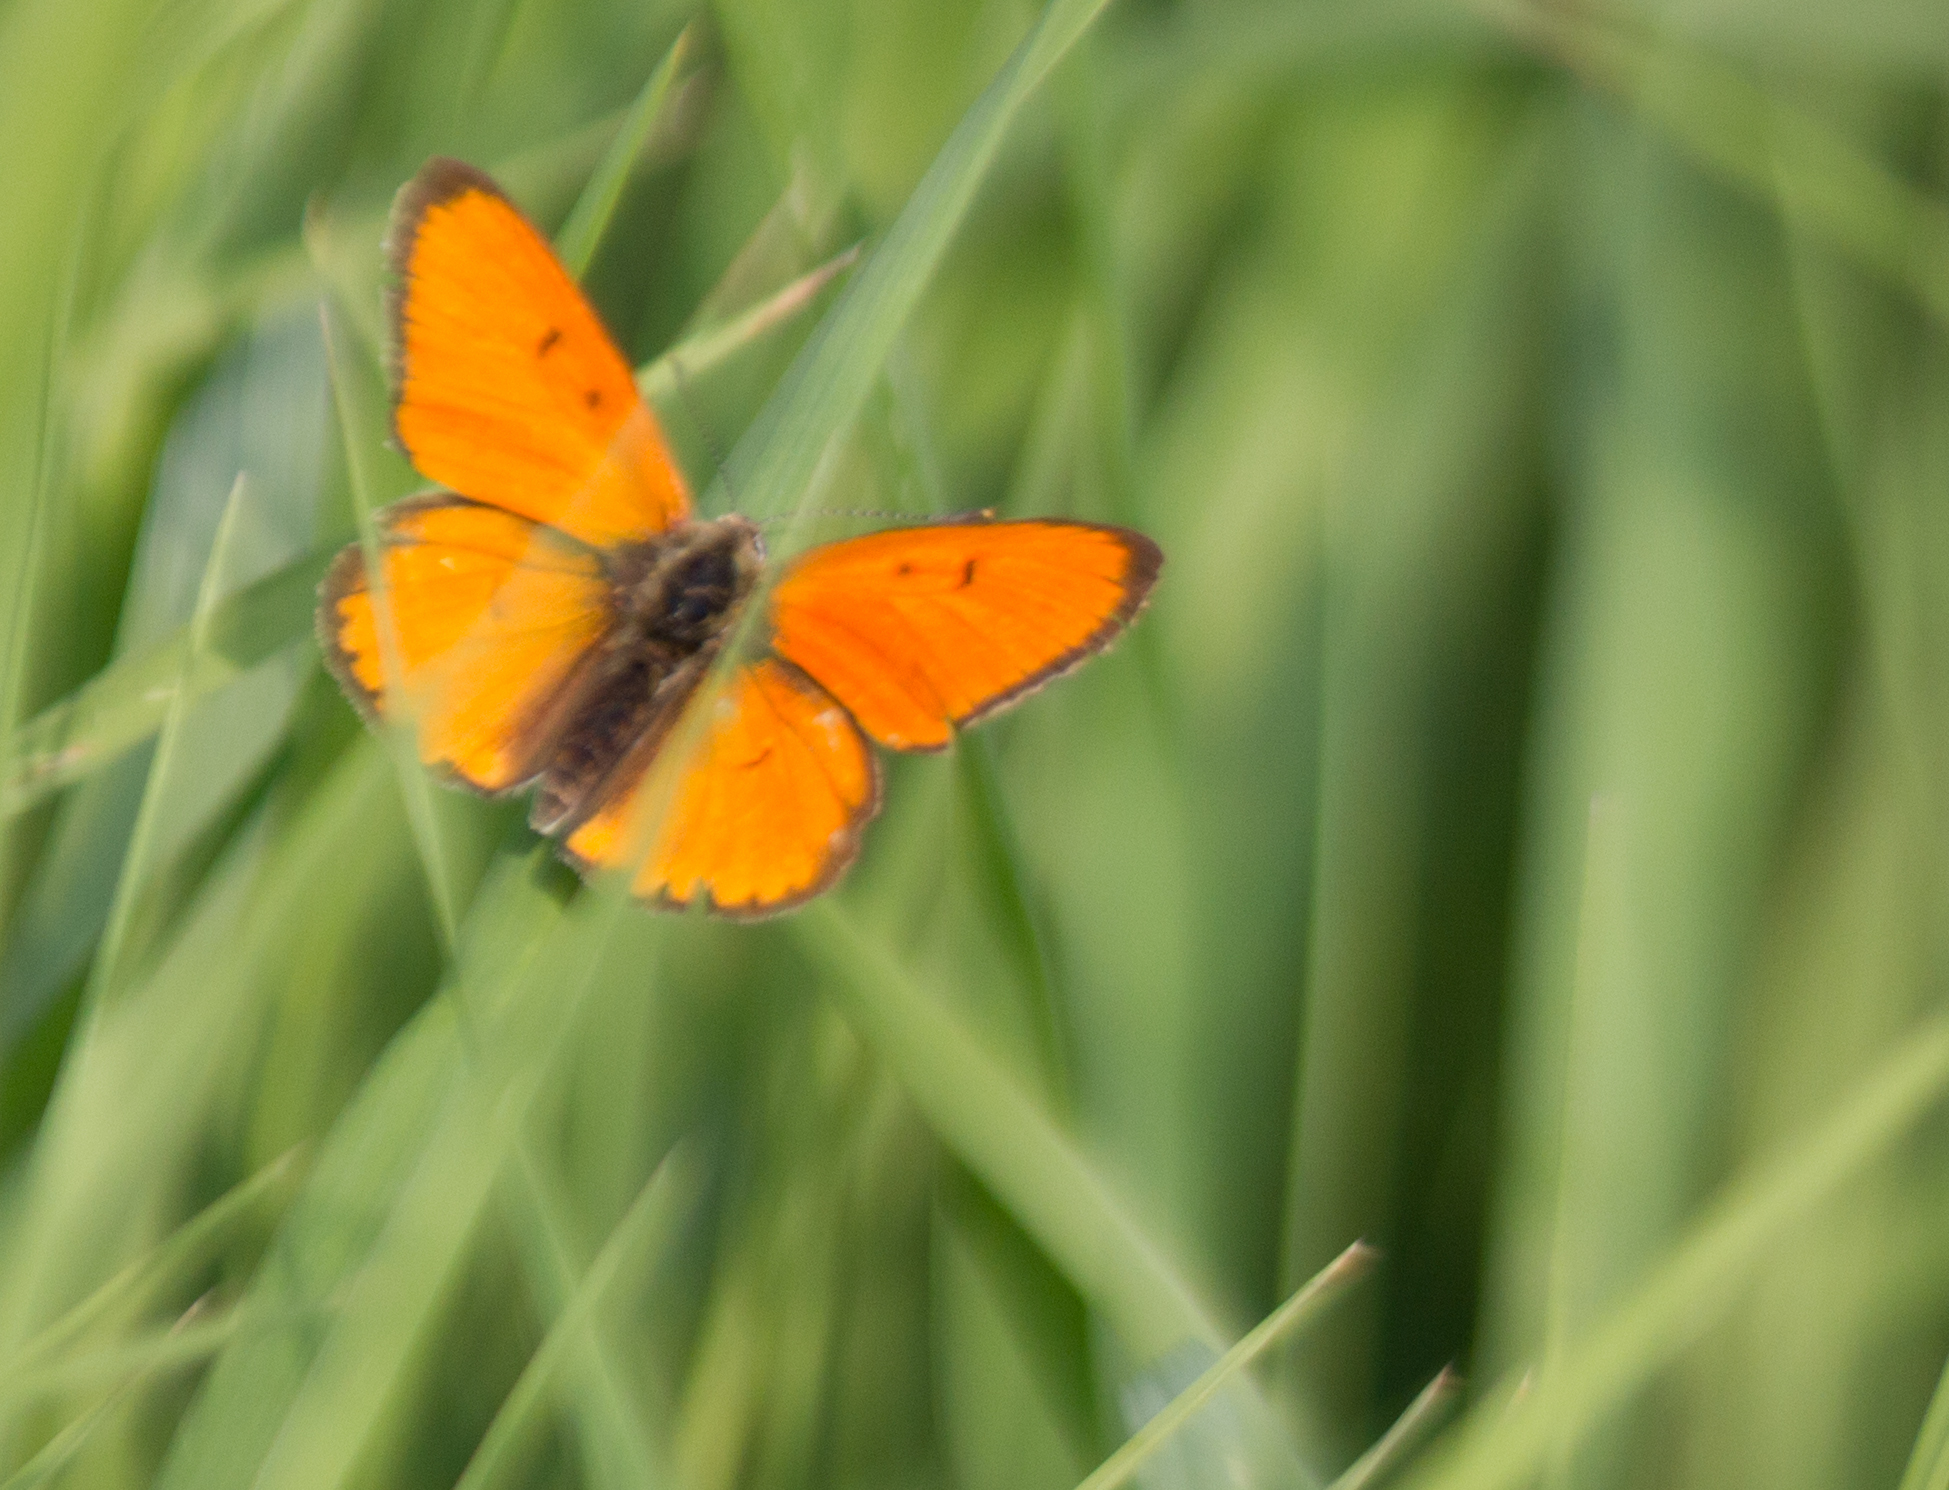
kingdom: Animalia
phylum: Arthropoda
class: Insecta
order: Lepidoptera
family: Lycaenidae
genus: Lycaena
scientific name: Lycaena dispar
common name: Large copper
